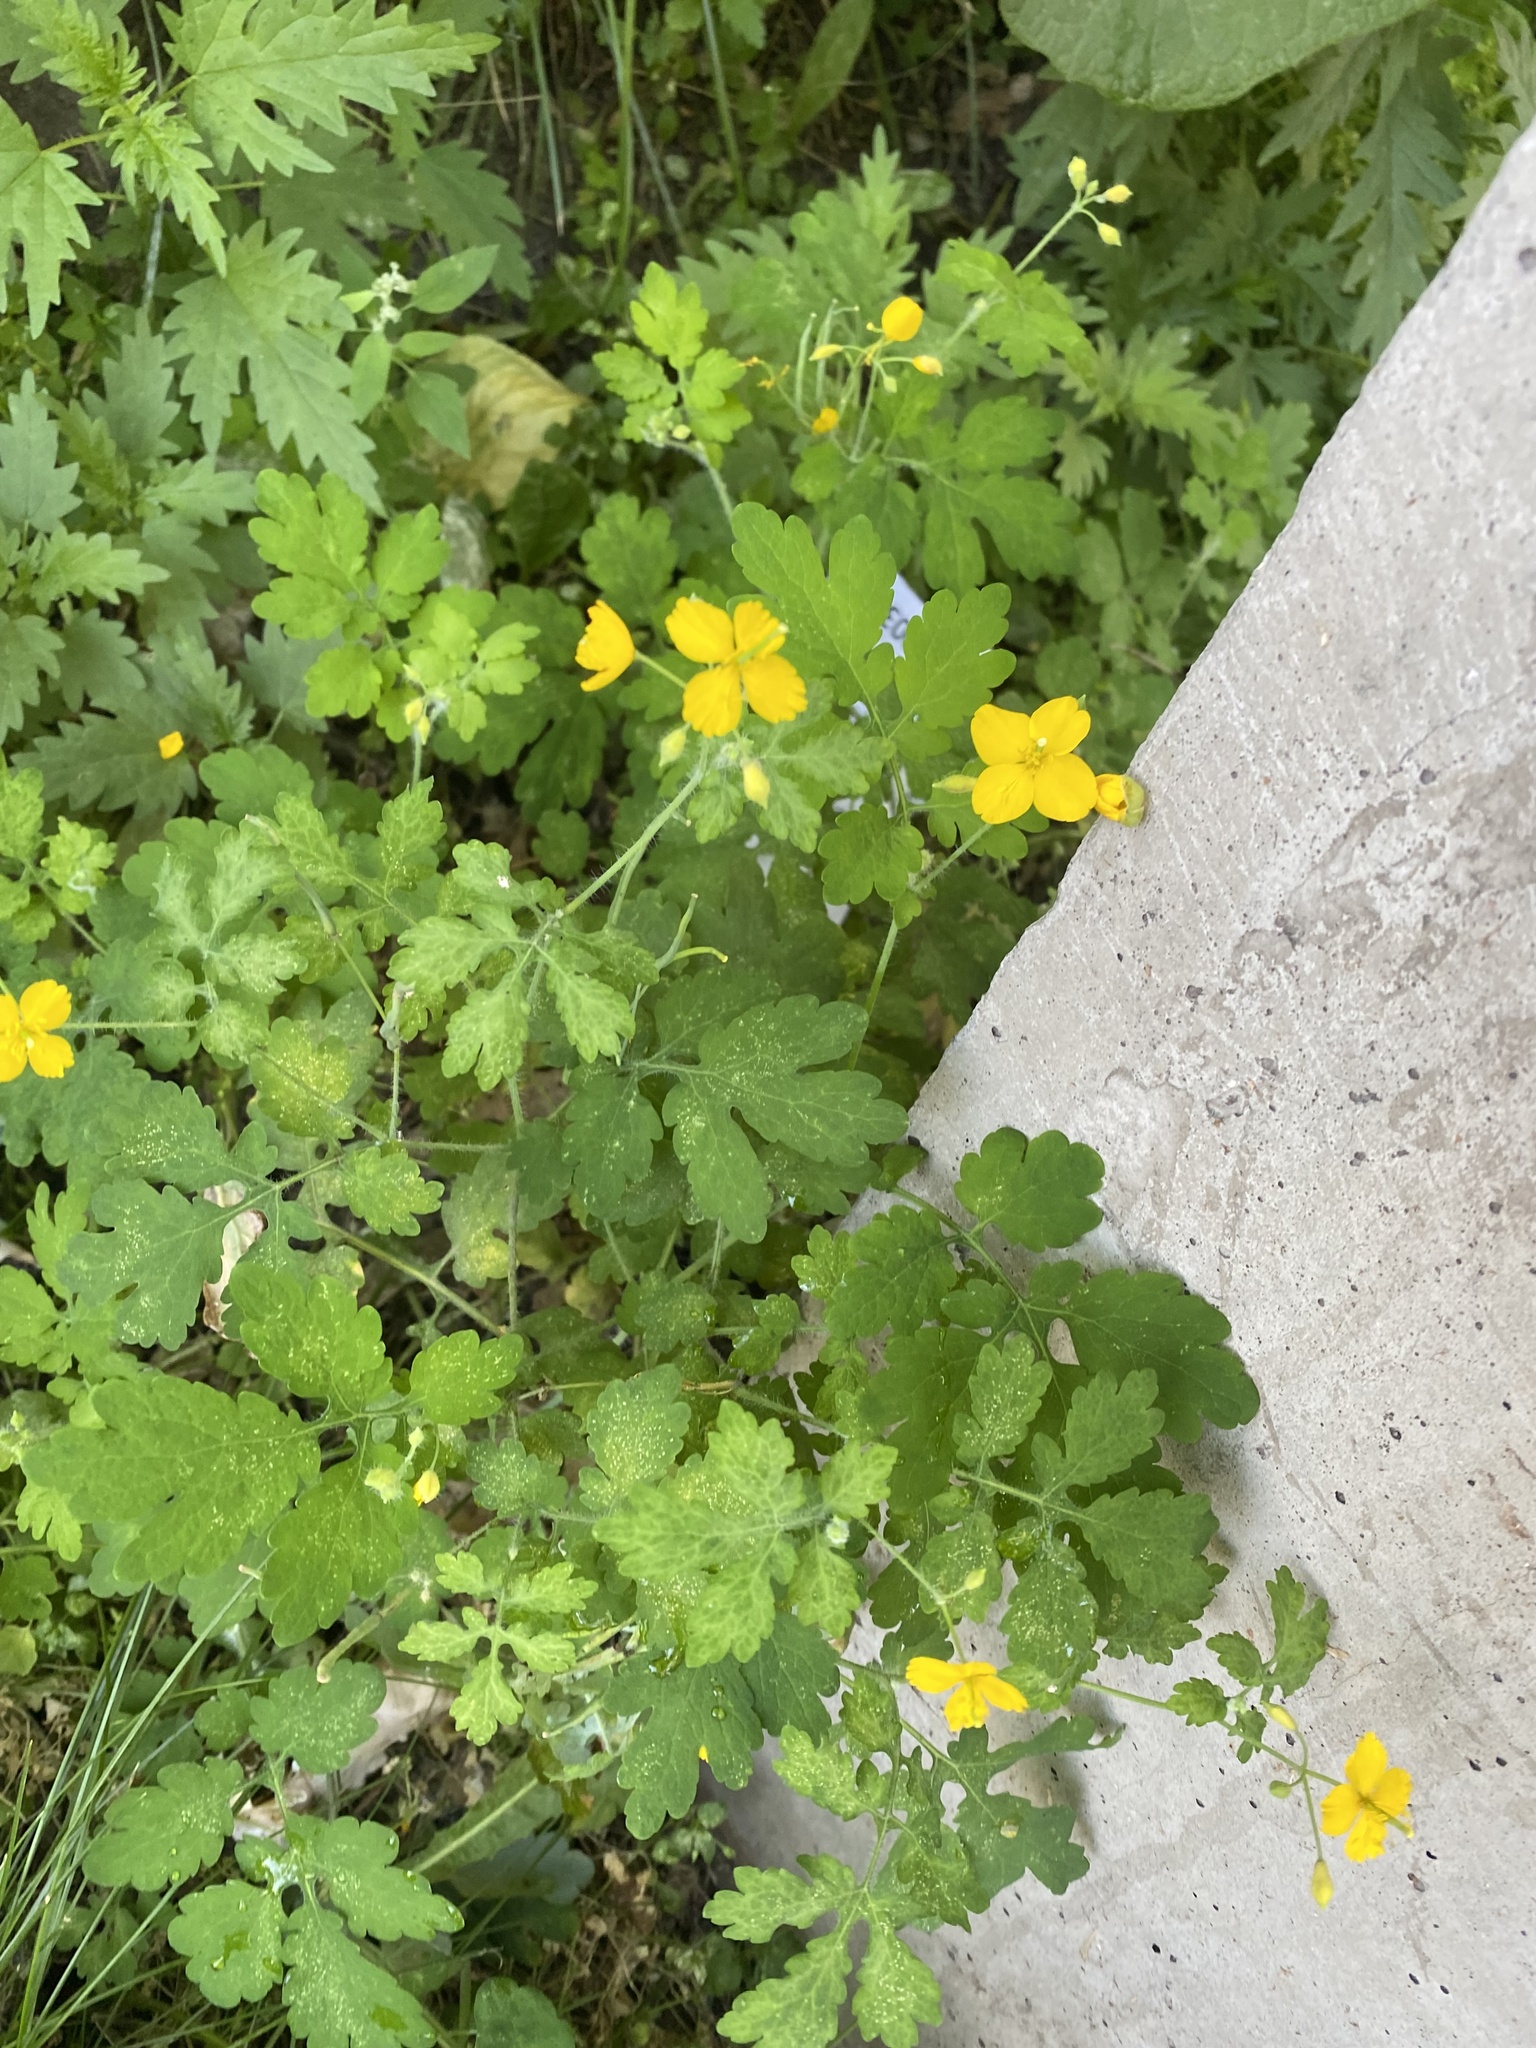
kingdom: Plantae
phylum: Tracheophyta
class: Magnoliopsida
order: Ranunculales
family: Papaveraceae
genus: Chelidonium
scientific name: Chelidonium majus
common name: Greater celandine
